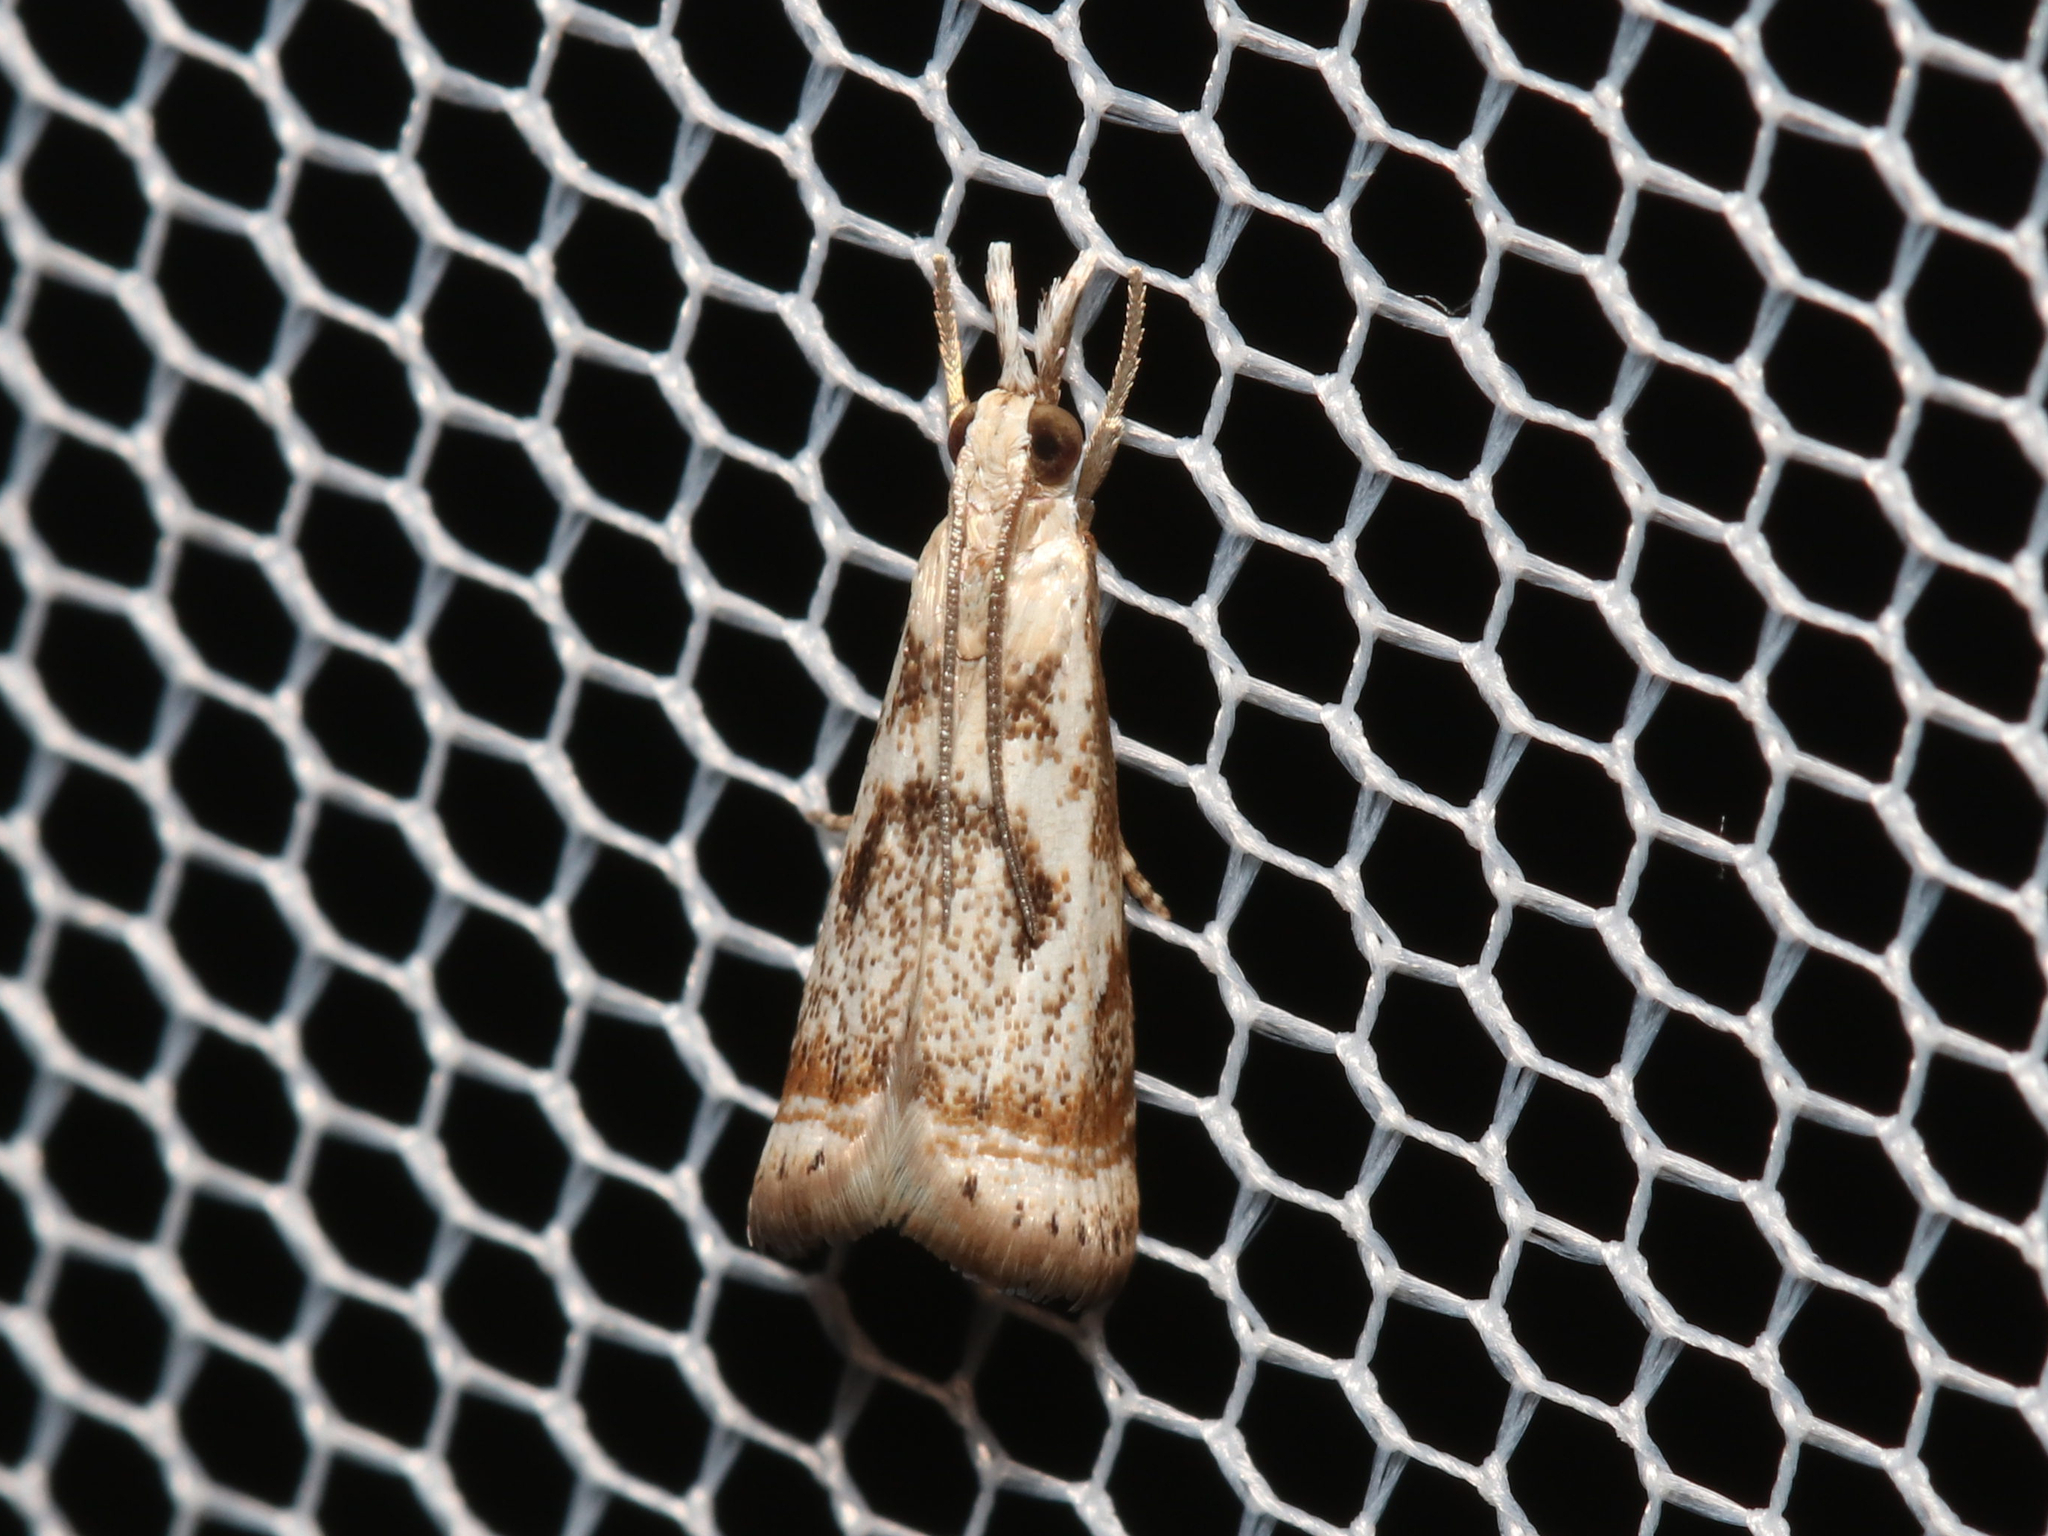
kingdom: Animalia
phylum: Arthropoda
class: Insecta
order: Lepidoptera
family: Crambidae
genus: Microcrambus
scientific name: Microcrambus elegans
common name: Elegant grass-veneer
